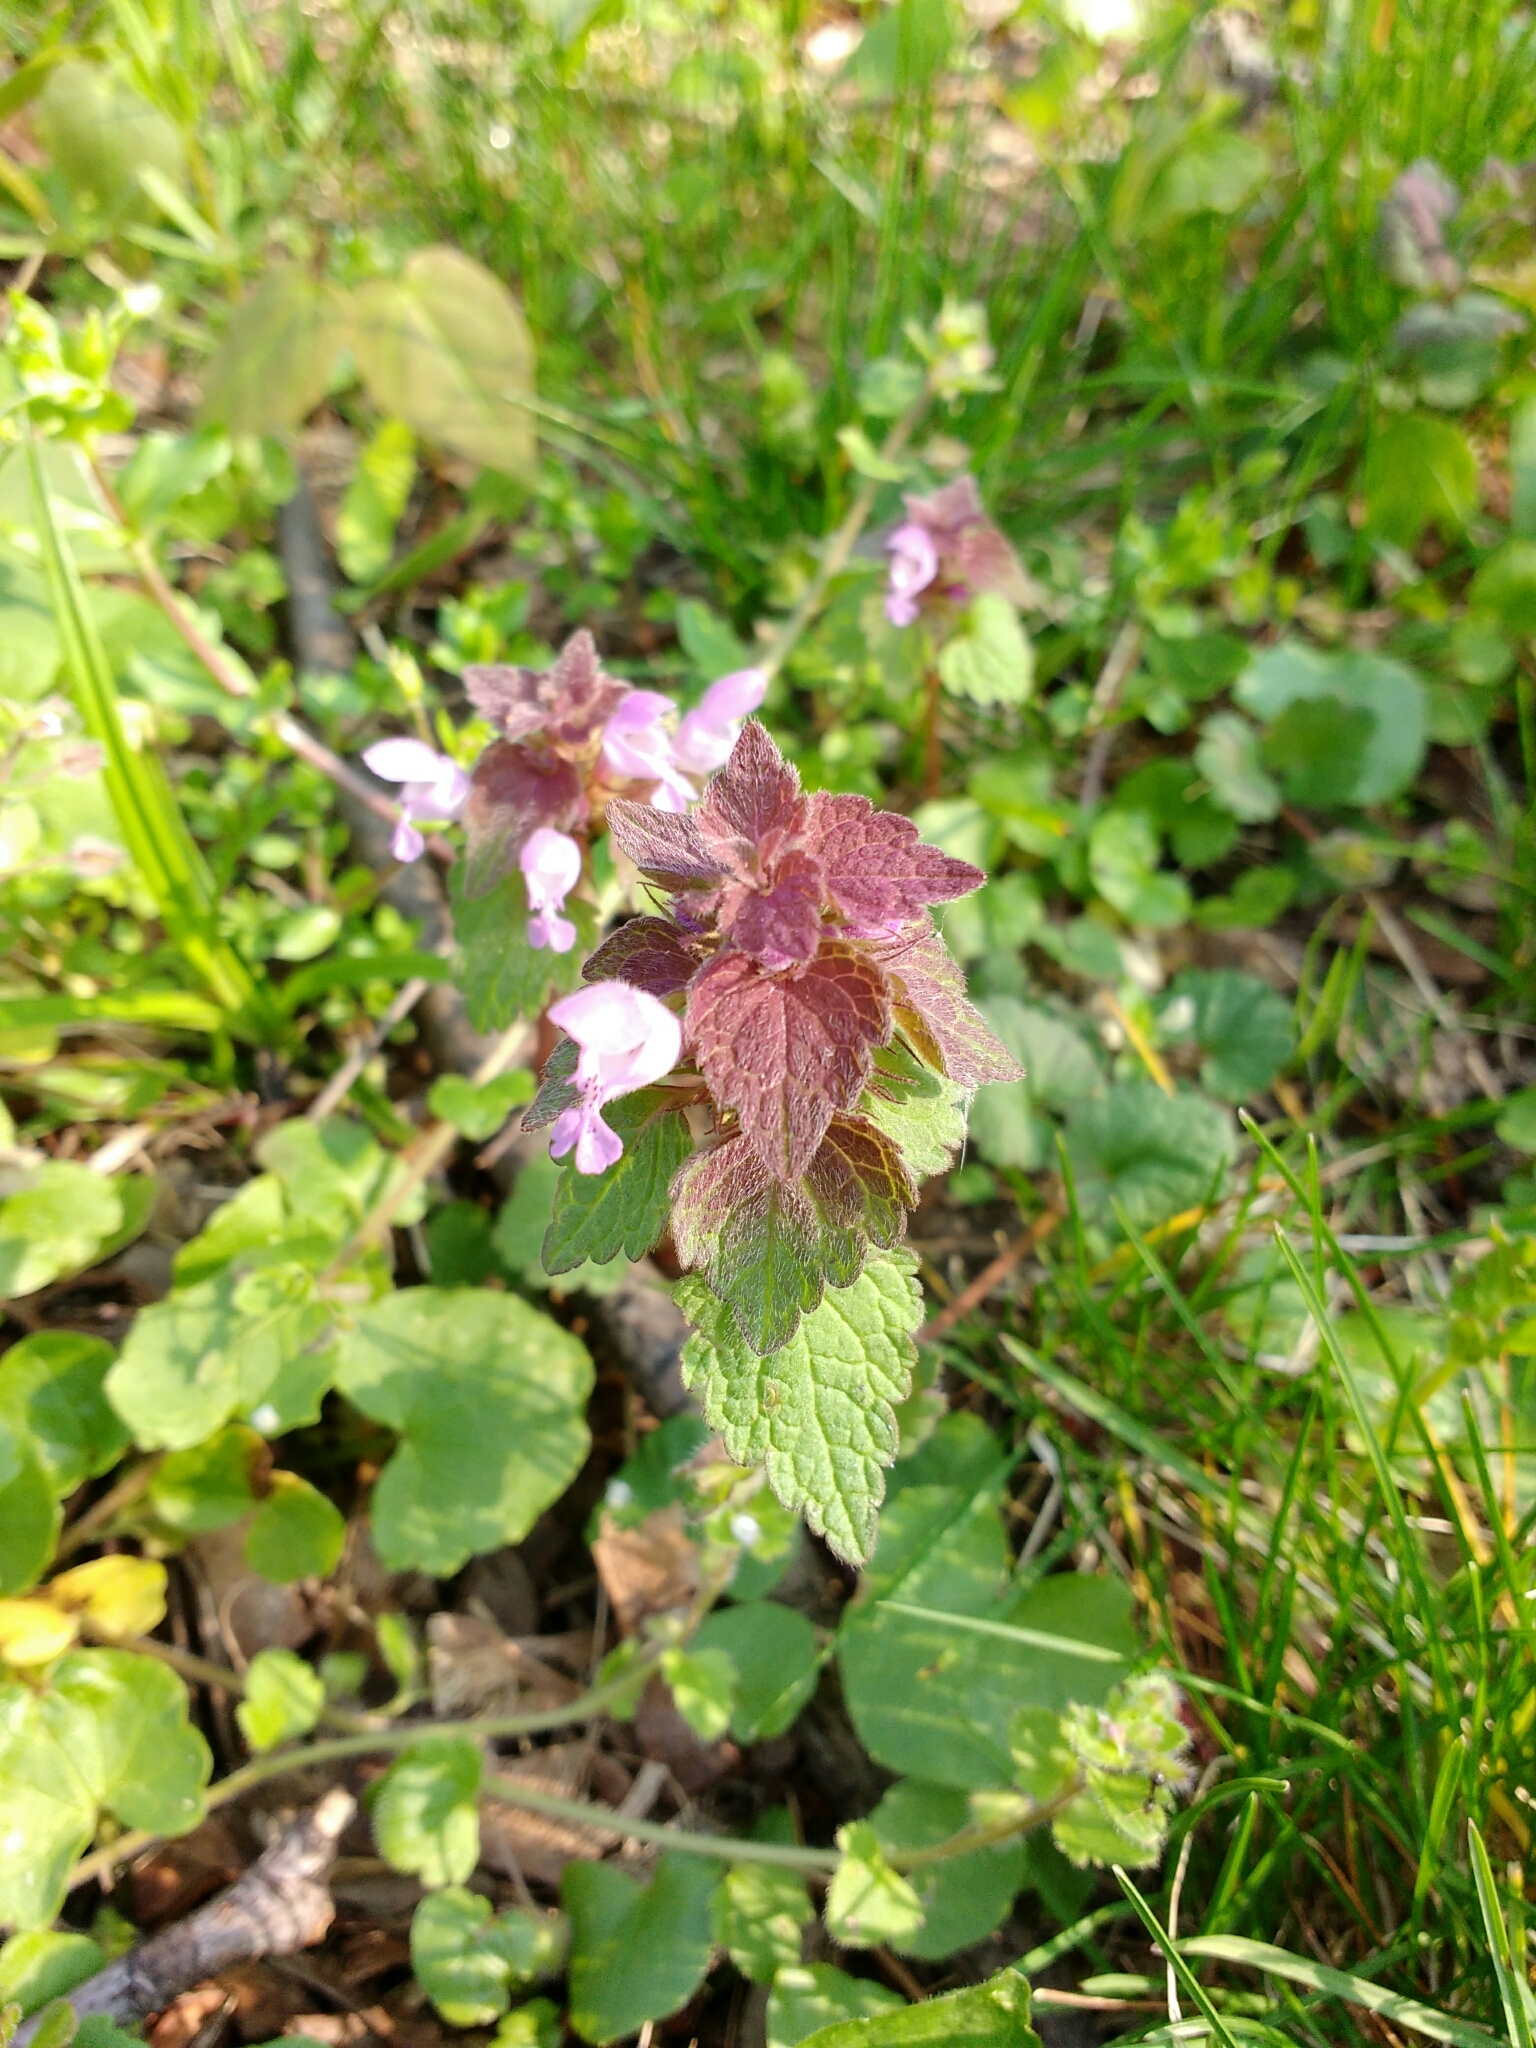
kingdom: Plantae
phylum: Tracheophyta
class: Magnoliopsida
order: Lamiales
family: Lamiaceae
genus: Lamium
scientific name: Lamium purpureum
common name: Red dead-nettle
